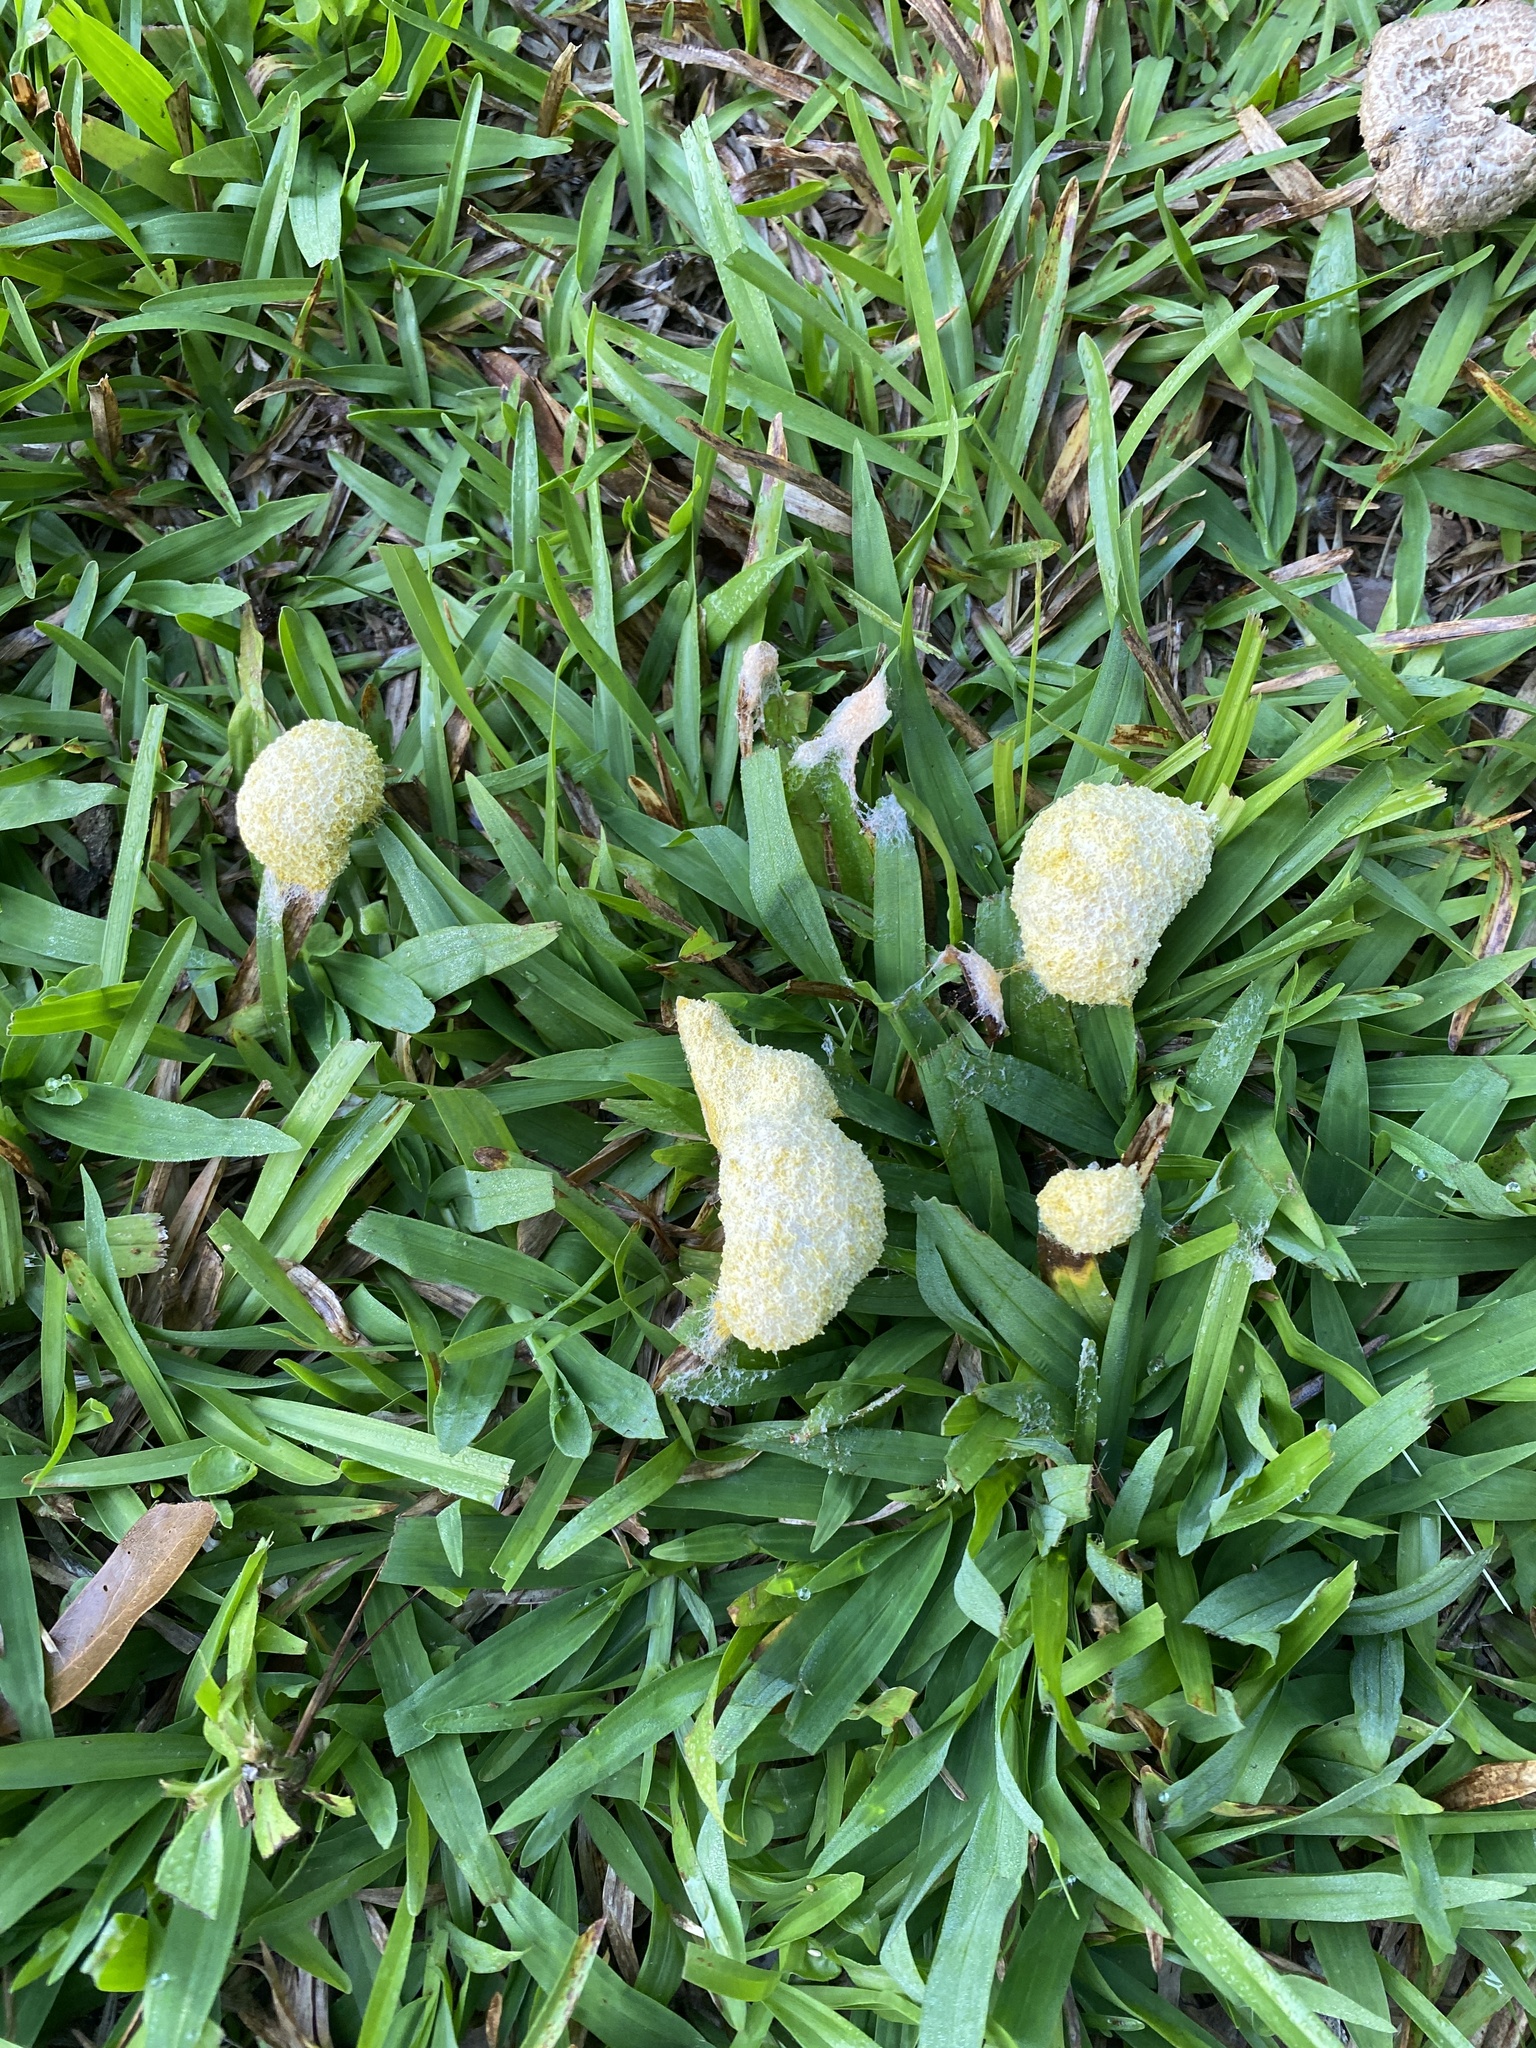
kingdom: Protozoa
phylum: Mycetozoa
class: Myxomycetes
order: Physarales
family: Physaraceae
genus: Fuligo
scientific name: Fuligo septica
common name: Dog vomit slime mold
